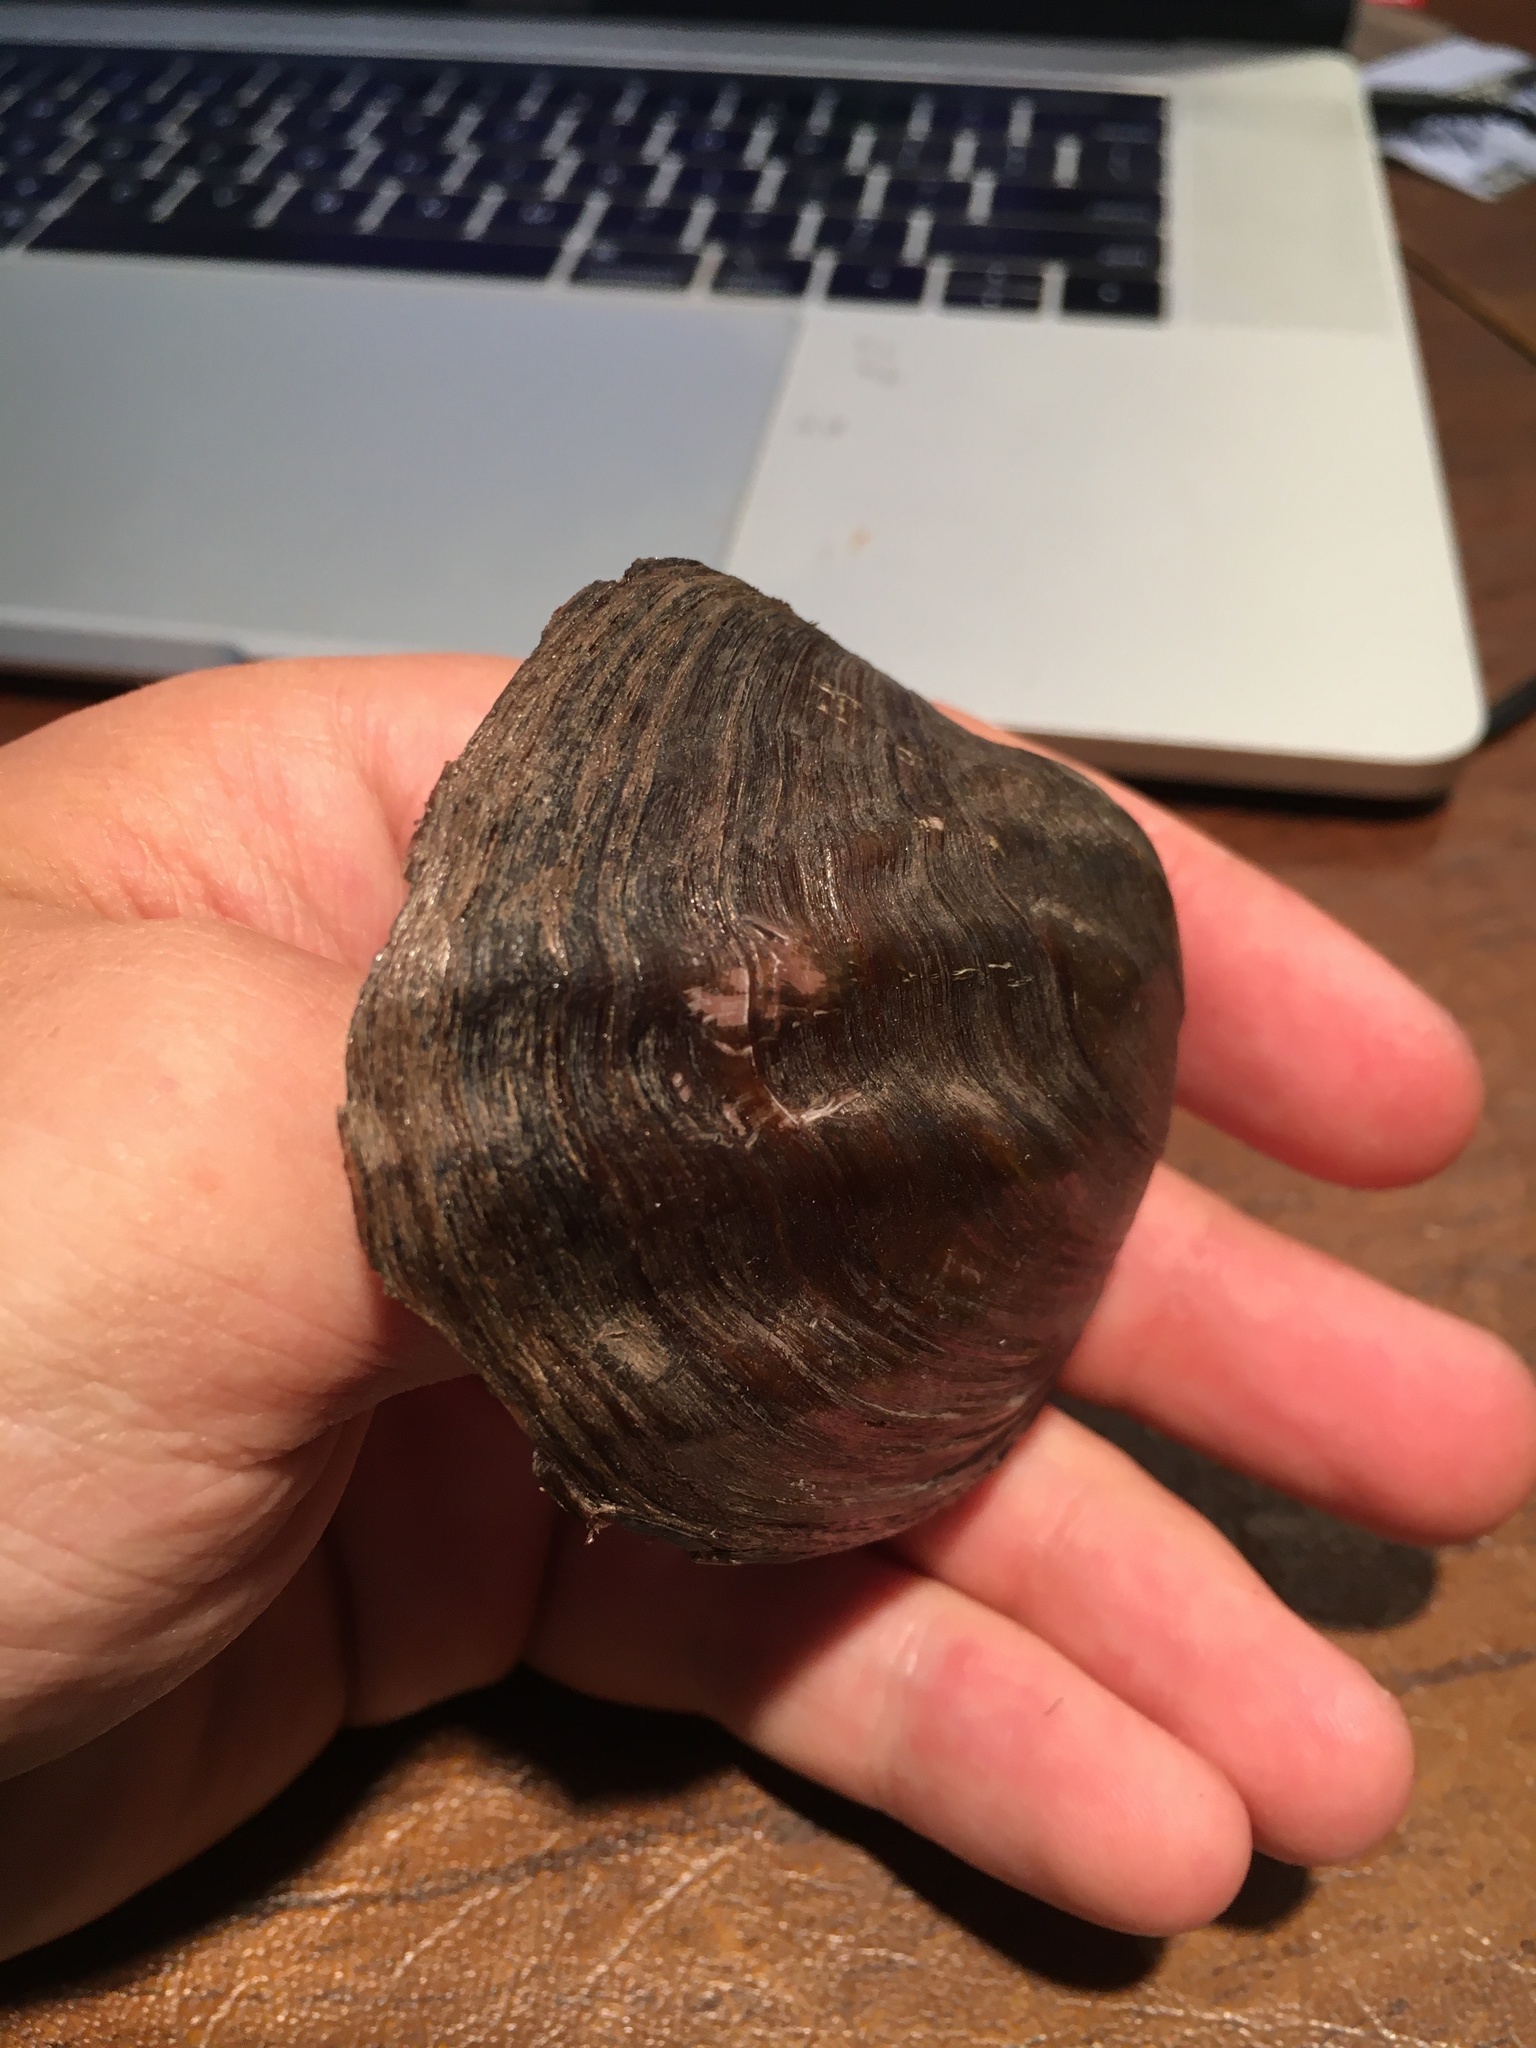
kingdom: Animalia
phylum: Mollusca
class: Bivalvia
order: Unionida
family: Unionidae
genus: Amblema
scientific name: Amblema plicata
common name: Threeridge
